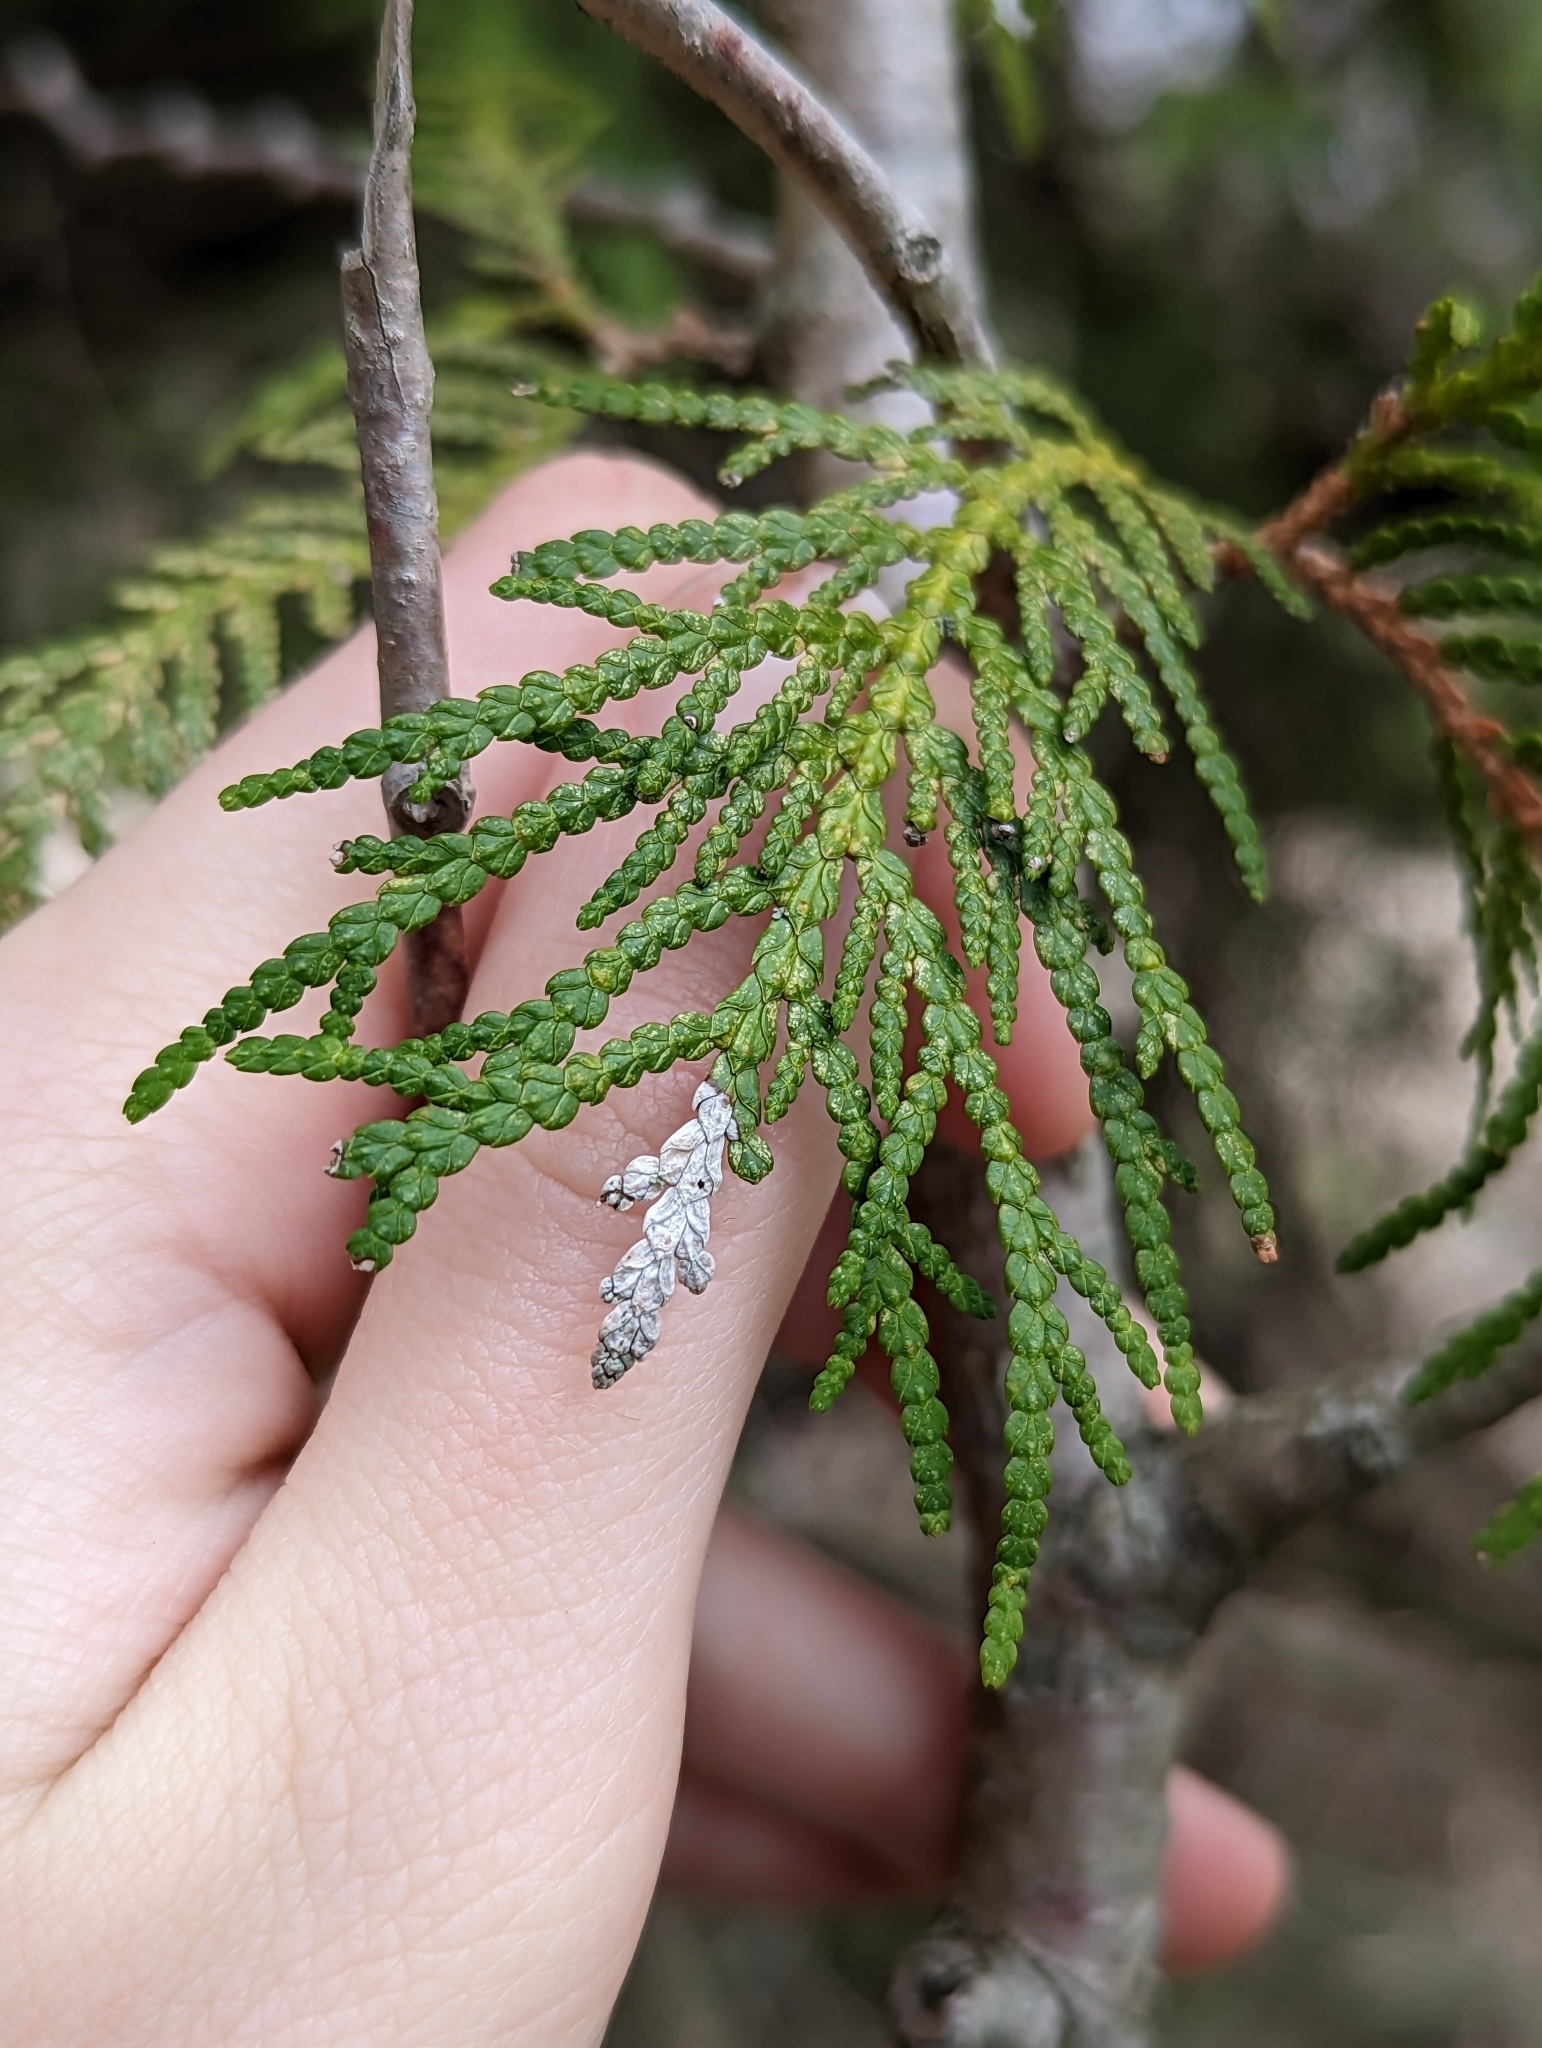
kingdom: Plantae
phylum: Tracheophyta
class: Pinopsida
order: Pinales
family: Cupressaceae
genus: Thuja
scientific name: Thuja occidentalis
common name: Northern white-cedar
